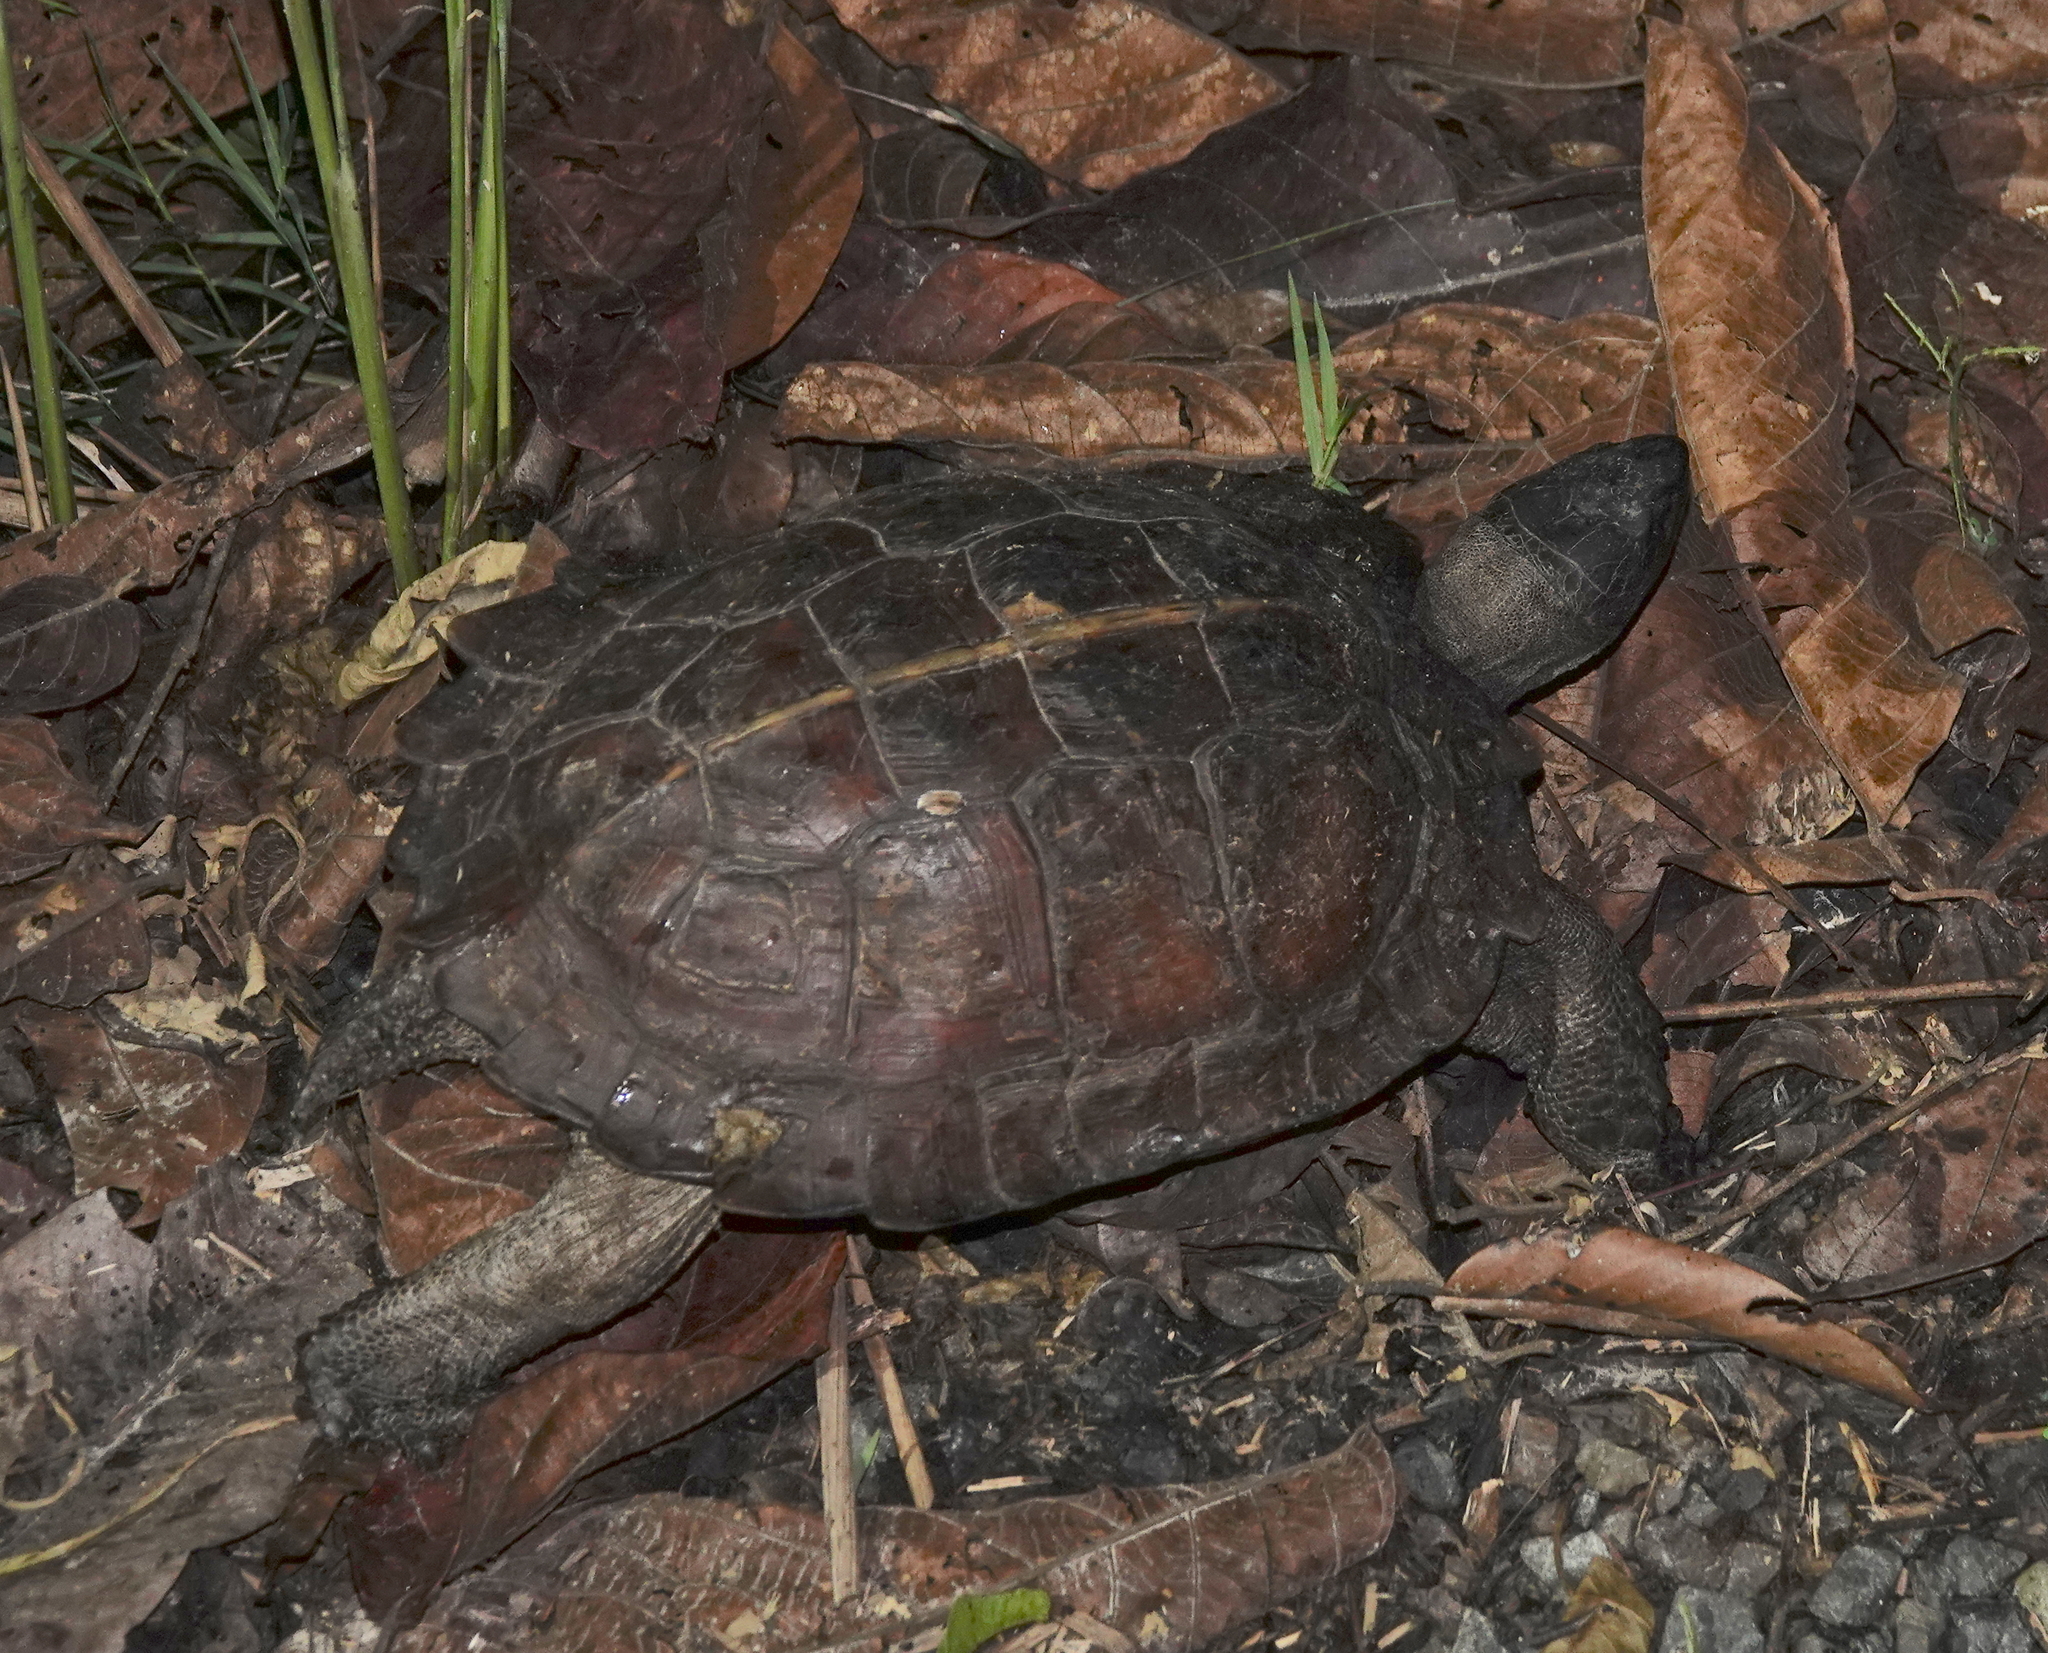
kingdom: Animalia
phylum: Chordata
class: Testudines
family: Geoemydidae
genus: Heosemys
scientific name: Heosemys spinosa
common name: Spiny turtle
